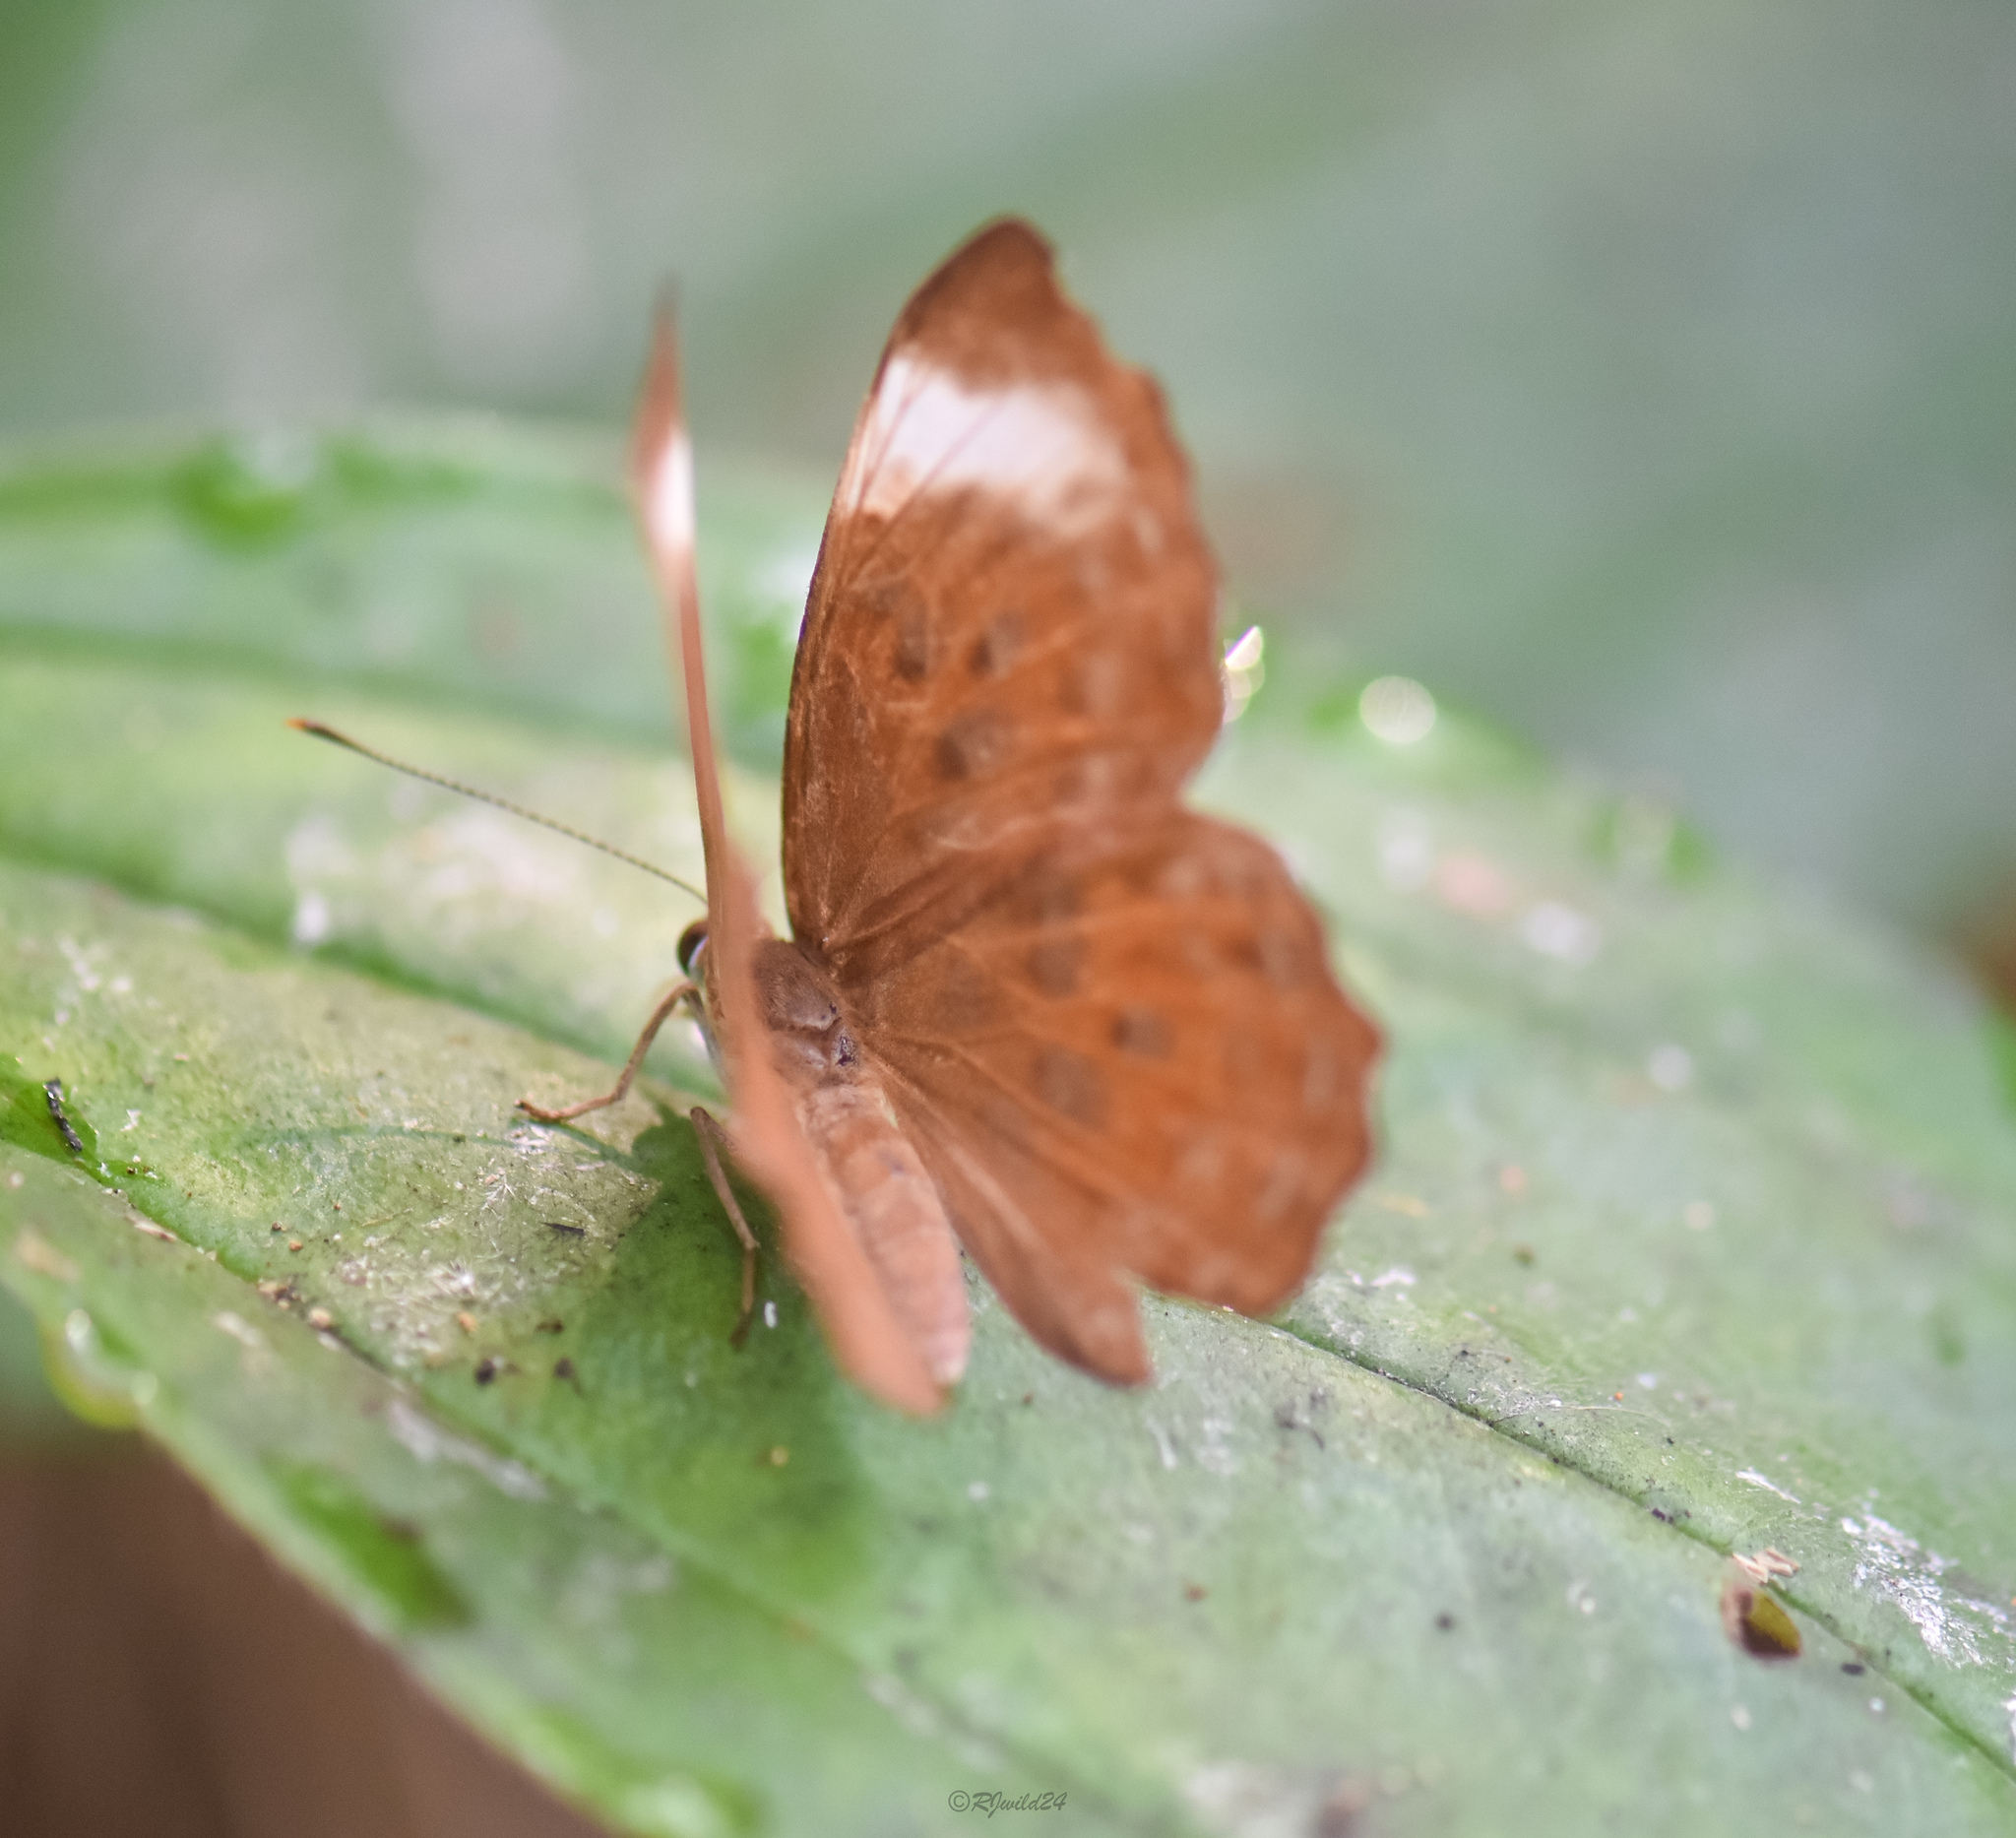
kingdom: Animalia
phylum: Arthropoda
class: Insecta
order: Lepidoptera
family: Erebidae
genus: Dysschema
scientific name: Dysschema
